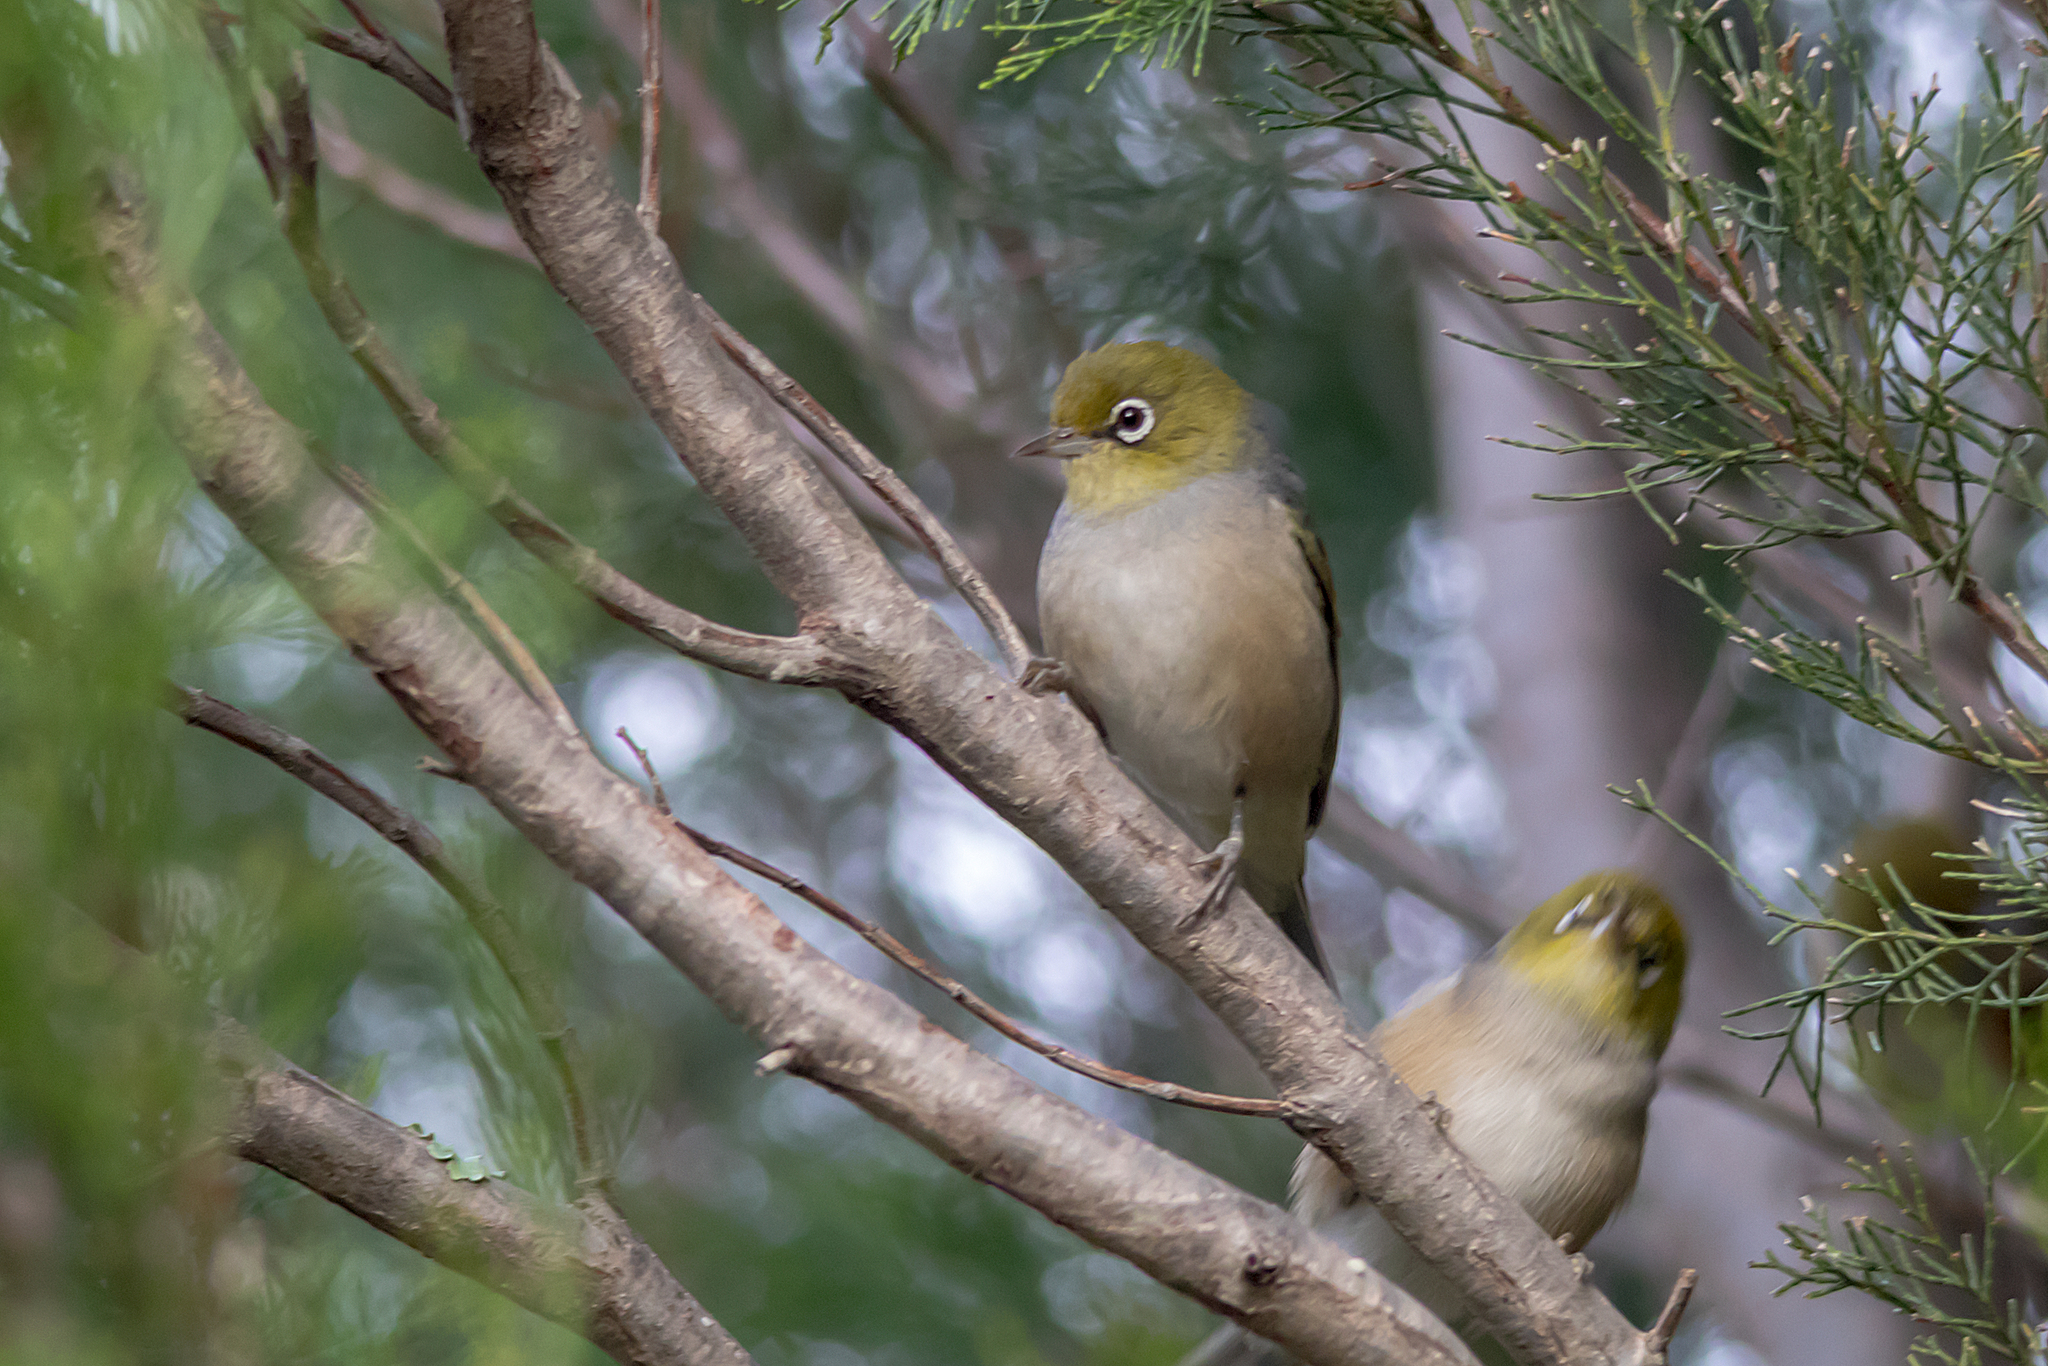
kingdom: Animalia
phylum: Chordata
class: Aves
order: Passeriformes
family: Zosteropidae
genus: Zosterops
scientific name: Zosterops lateralis
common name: Silvereye
